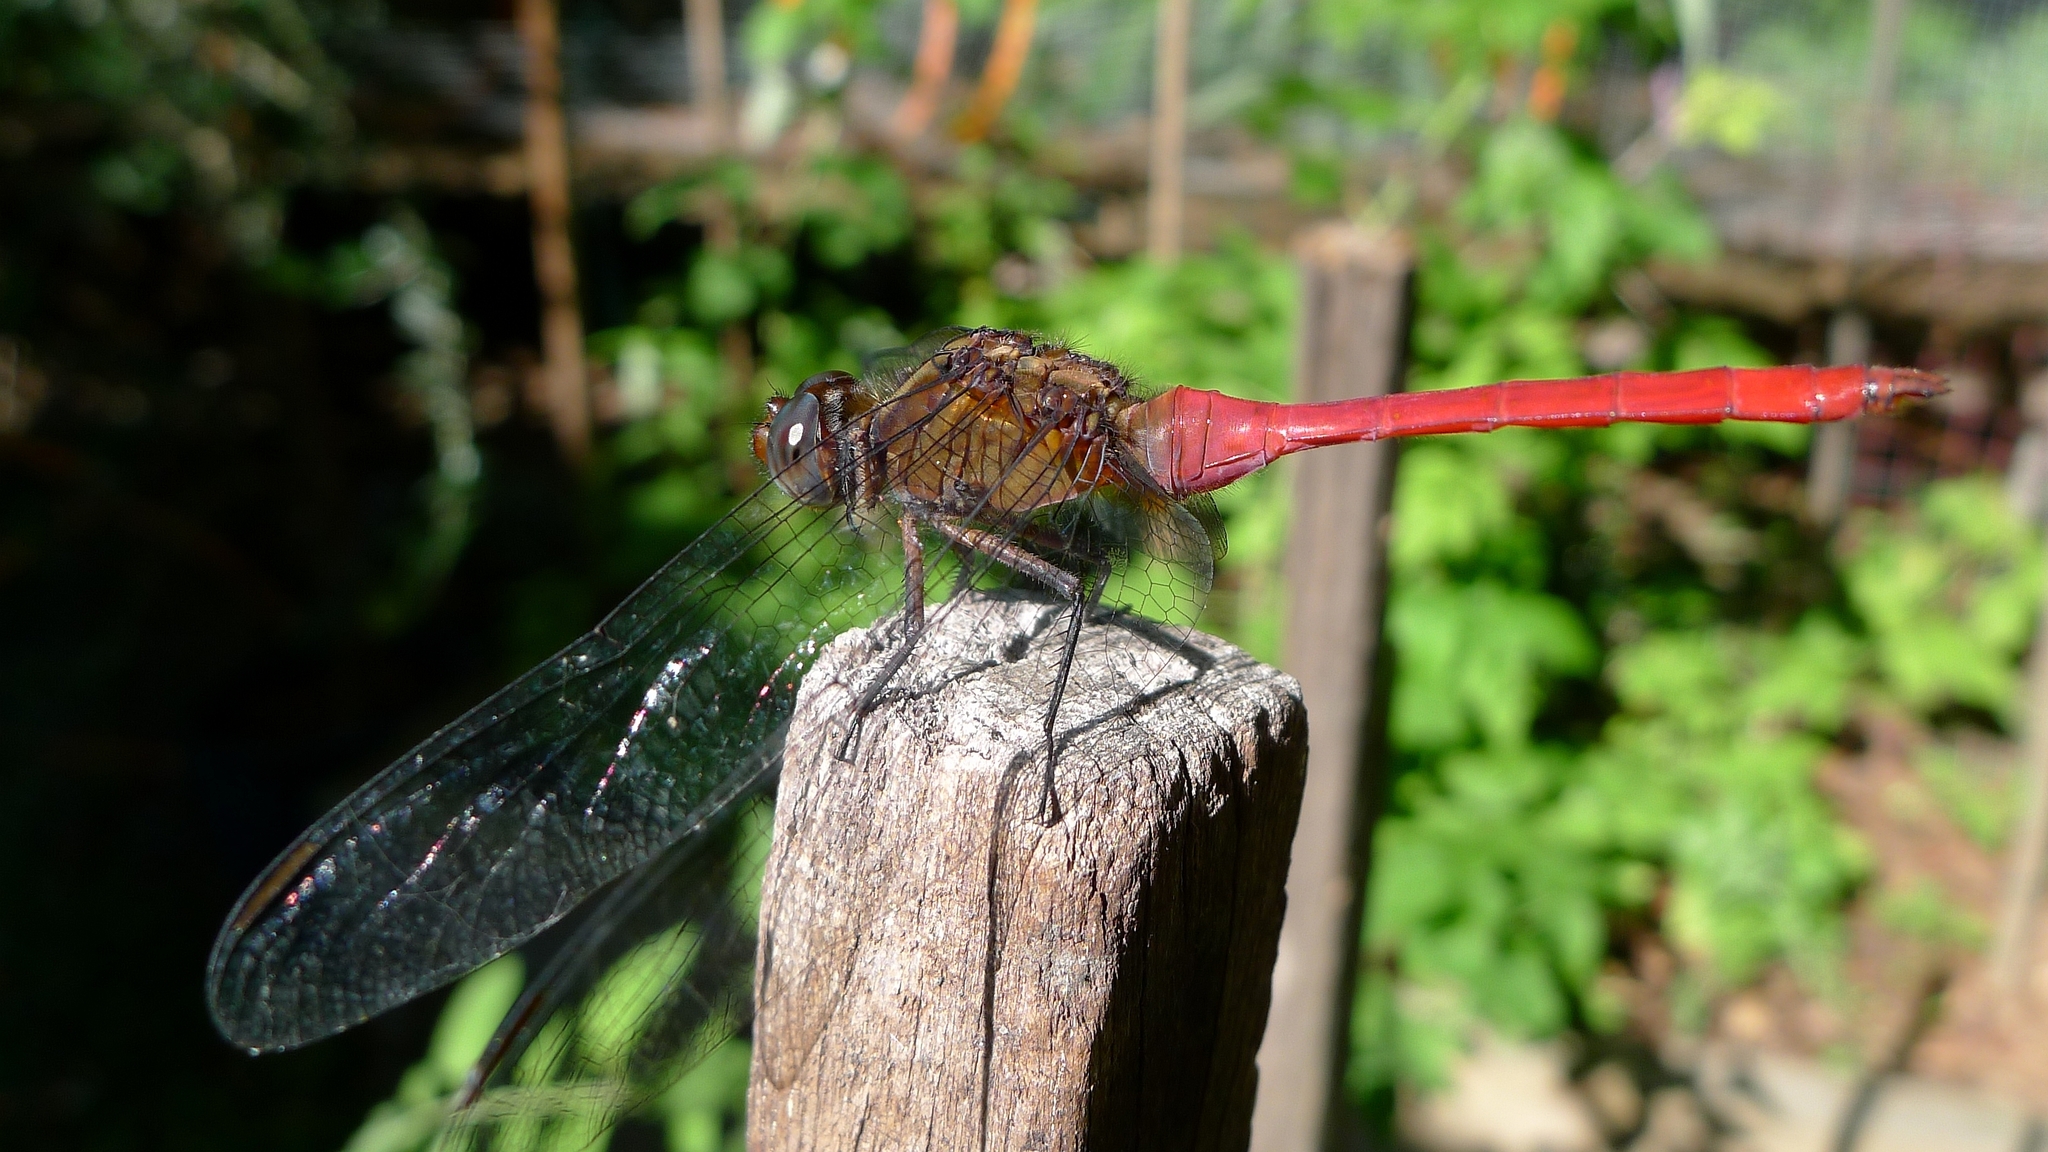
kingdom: Animalia
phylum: Arthropoda
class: Insecta
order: Odonata
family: Libellulidae
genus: Orthetrum
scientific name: Orthetrum villosovittatum
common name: Firery skimmer
